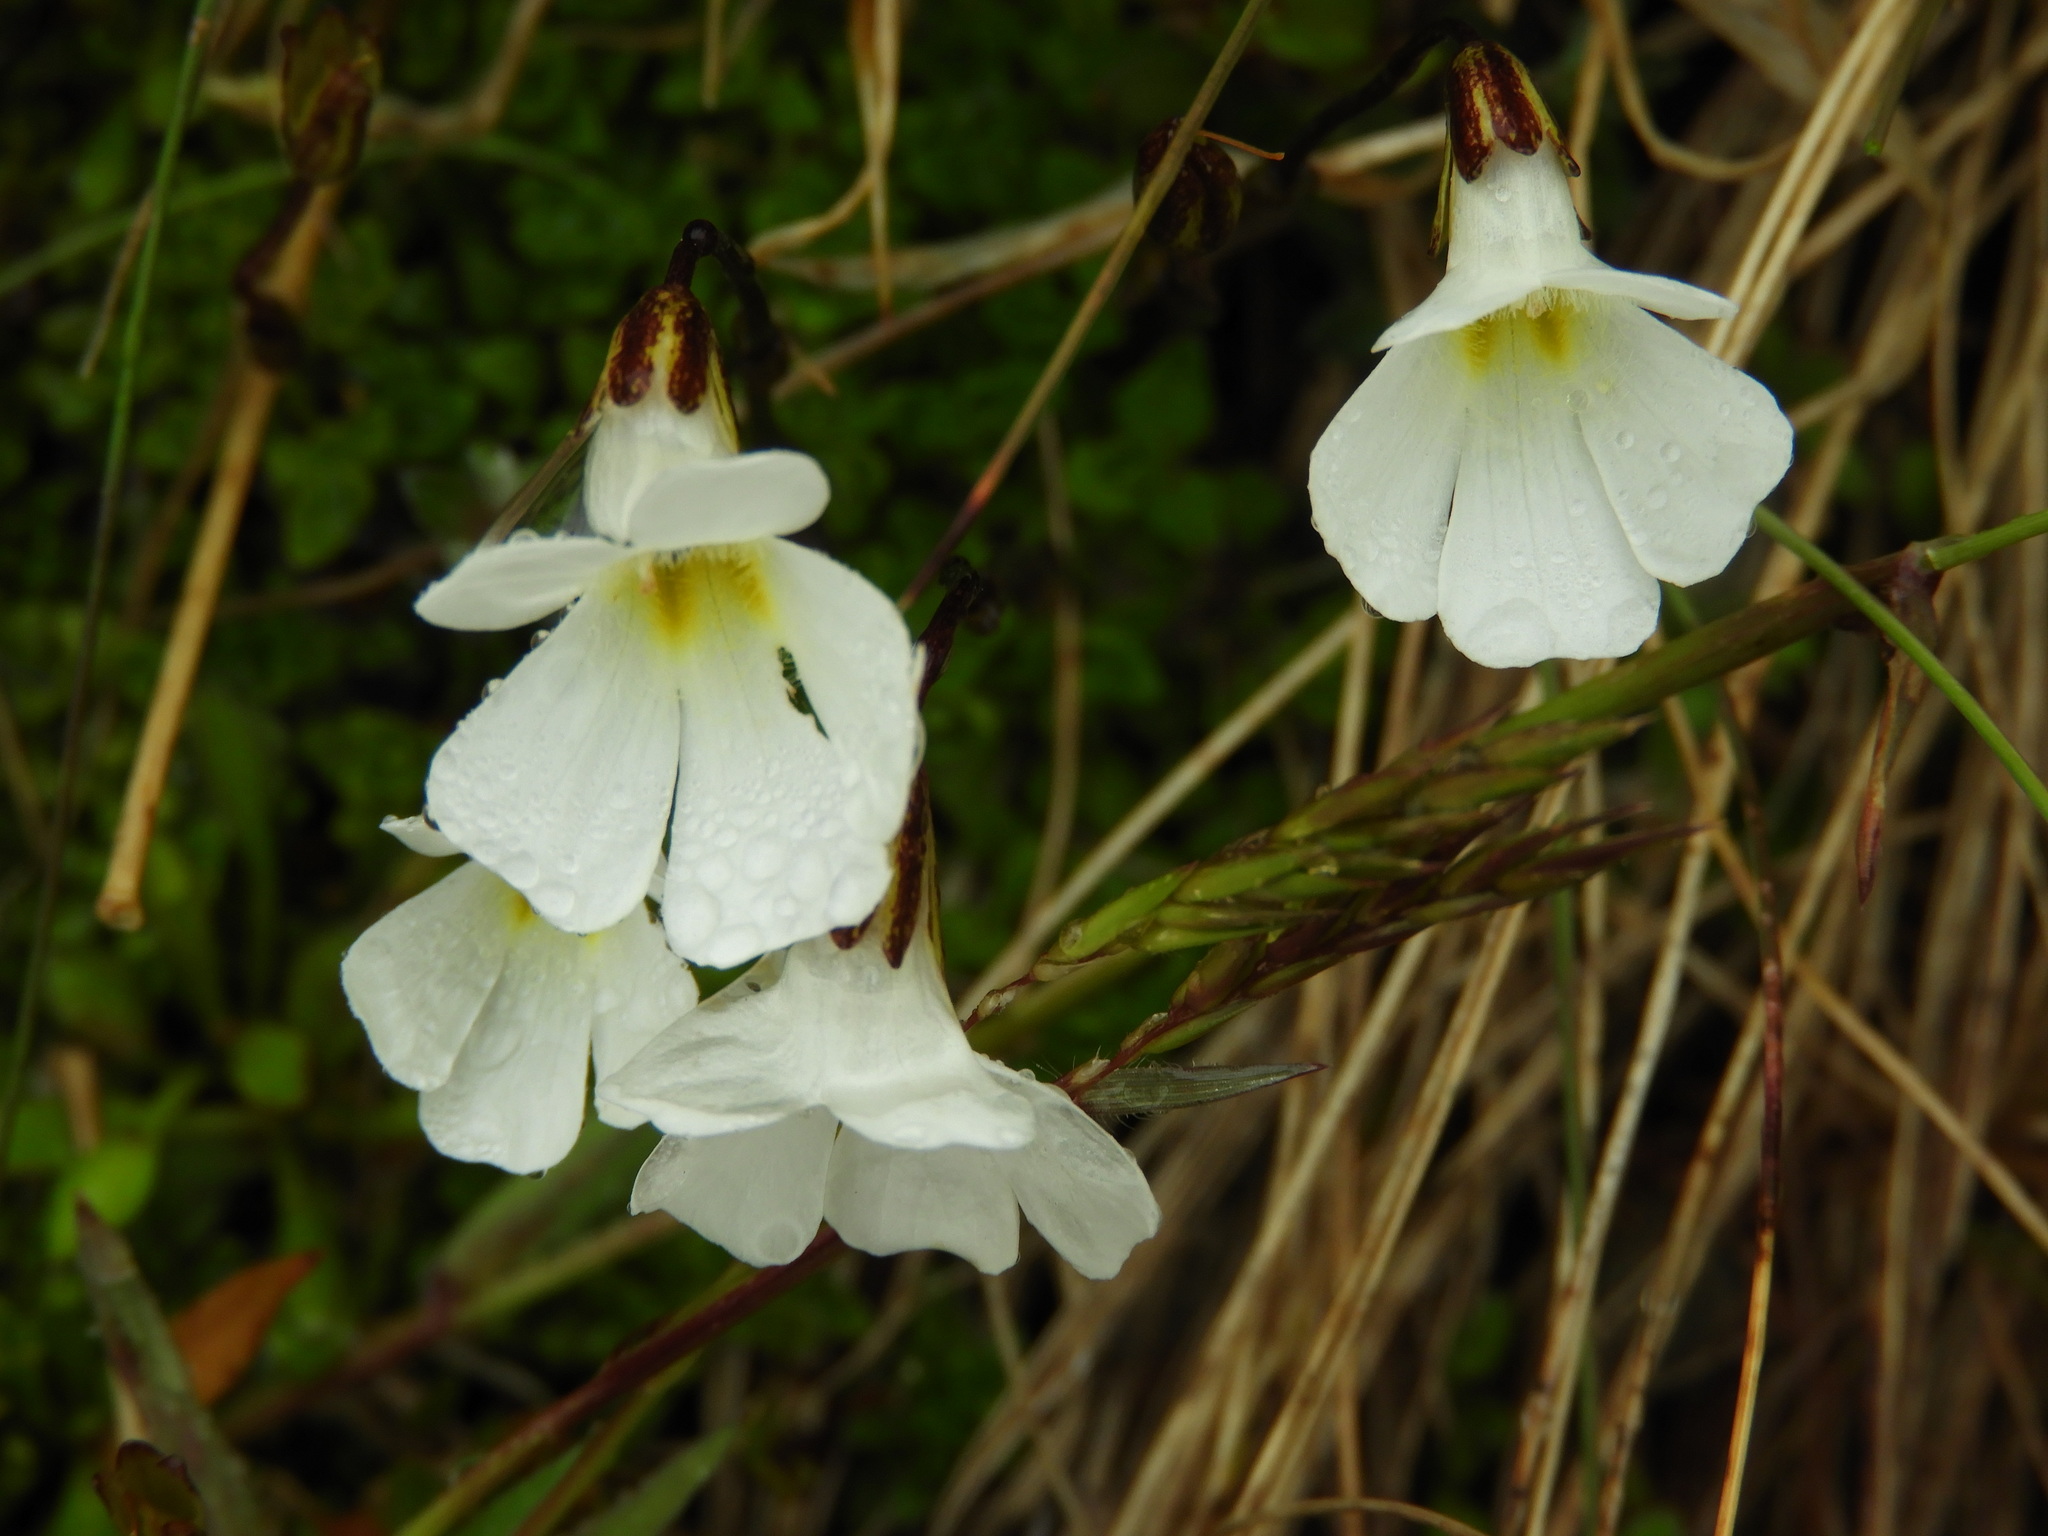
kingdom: Plantae
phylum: Tracheophyta
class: Magnoliopsida
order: Lamiales
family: Plantaginaceae
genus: Ourisia
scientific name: Ourisia caespitosa
